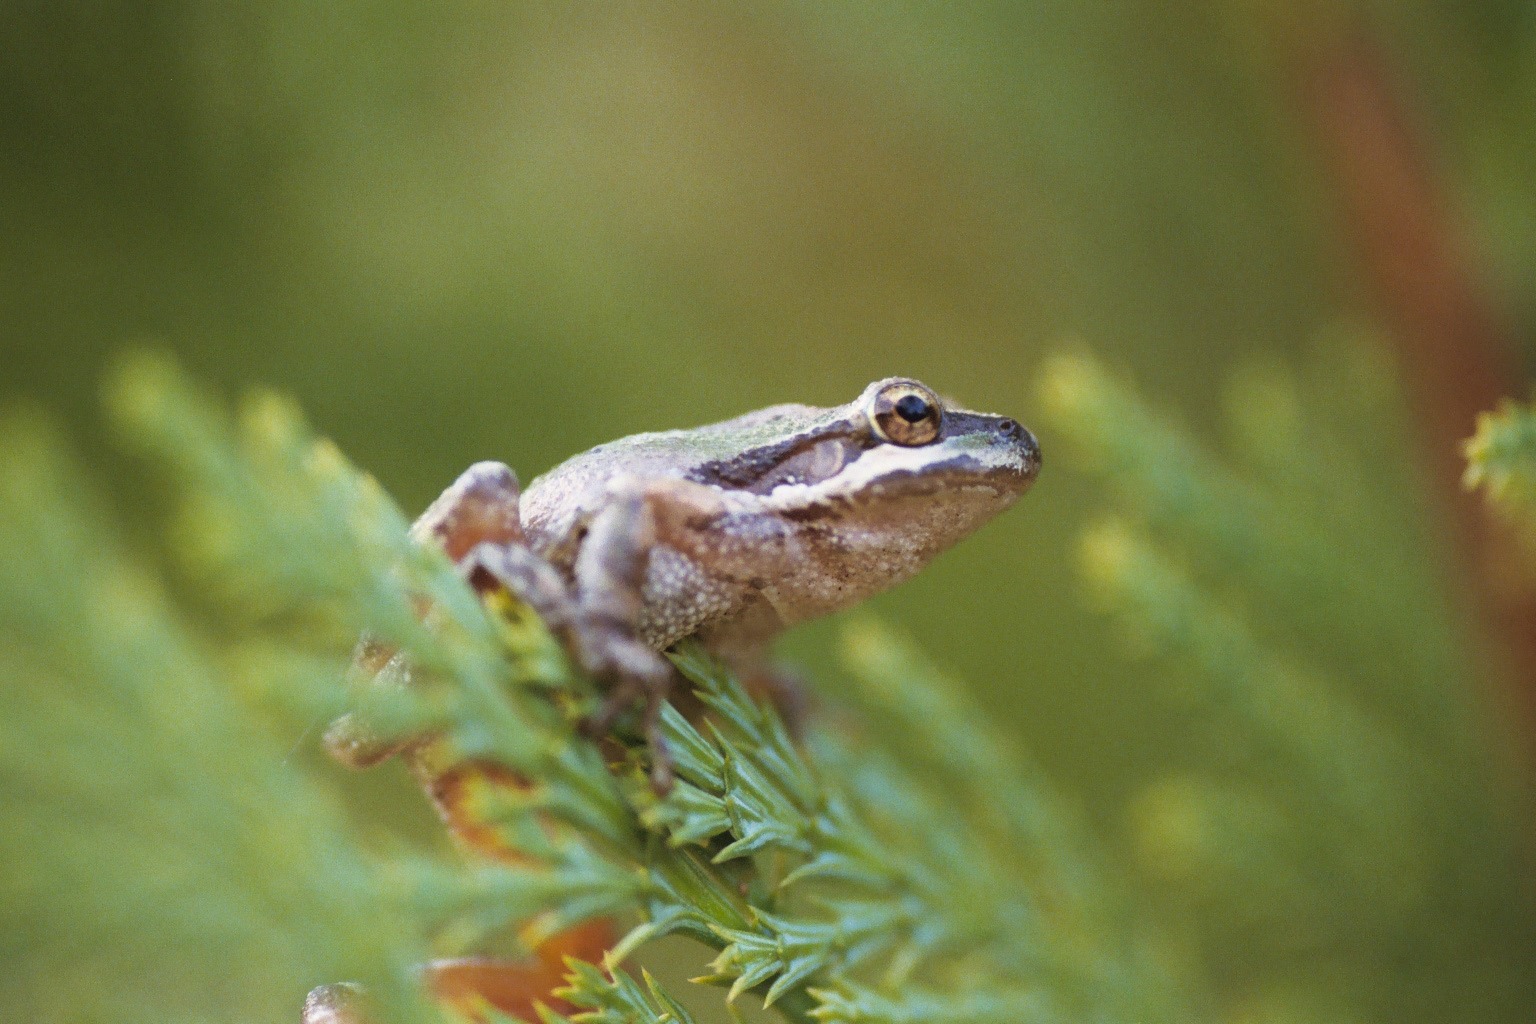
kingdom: Animalia
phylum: Chordata
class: Amphibia
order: Anura
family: Hylidae
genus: Pseudacris
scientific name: Pseudacris regilla
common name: Pacific chorus frog
